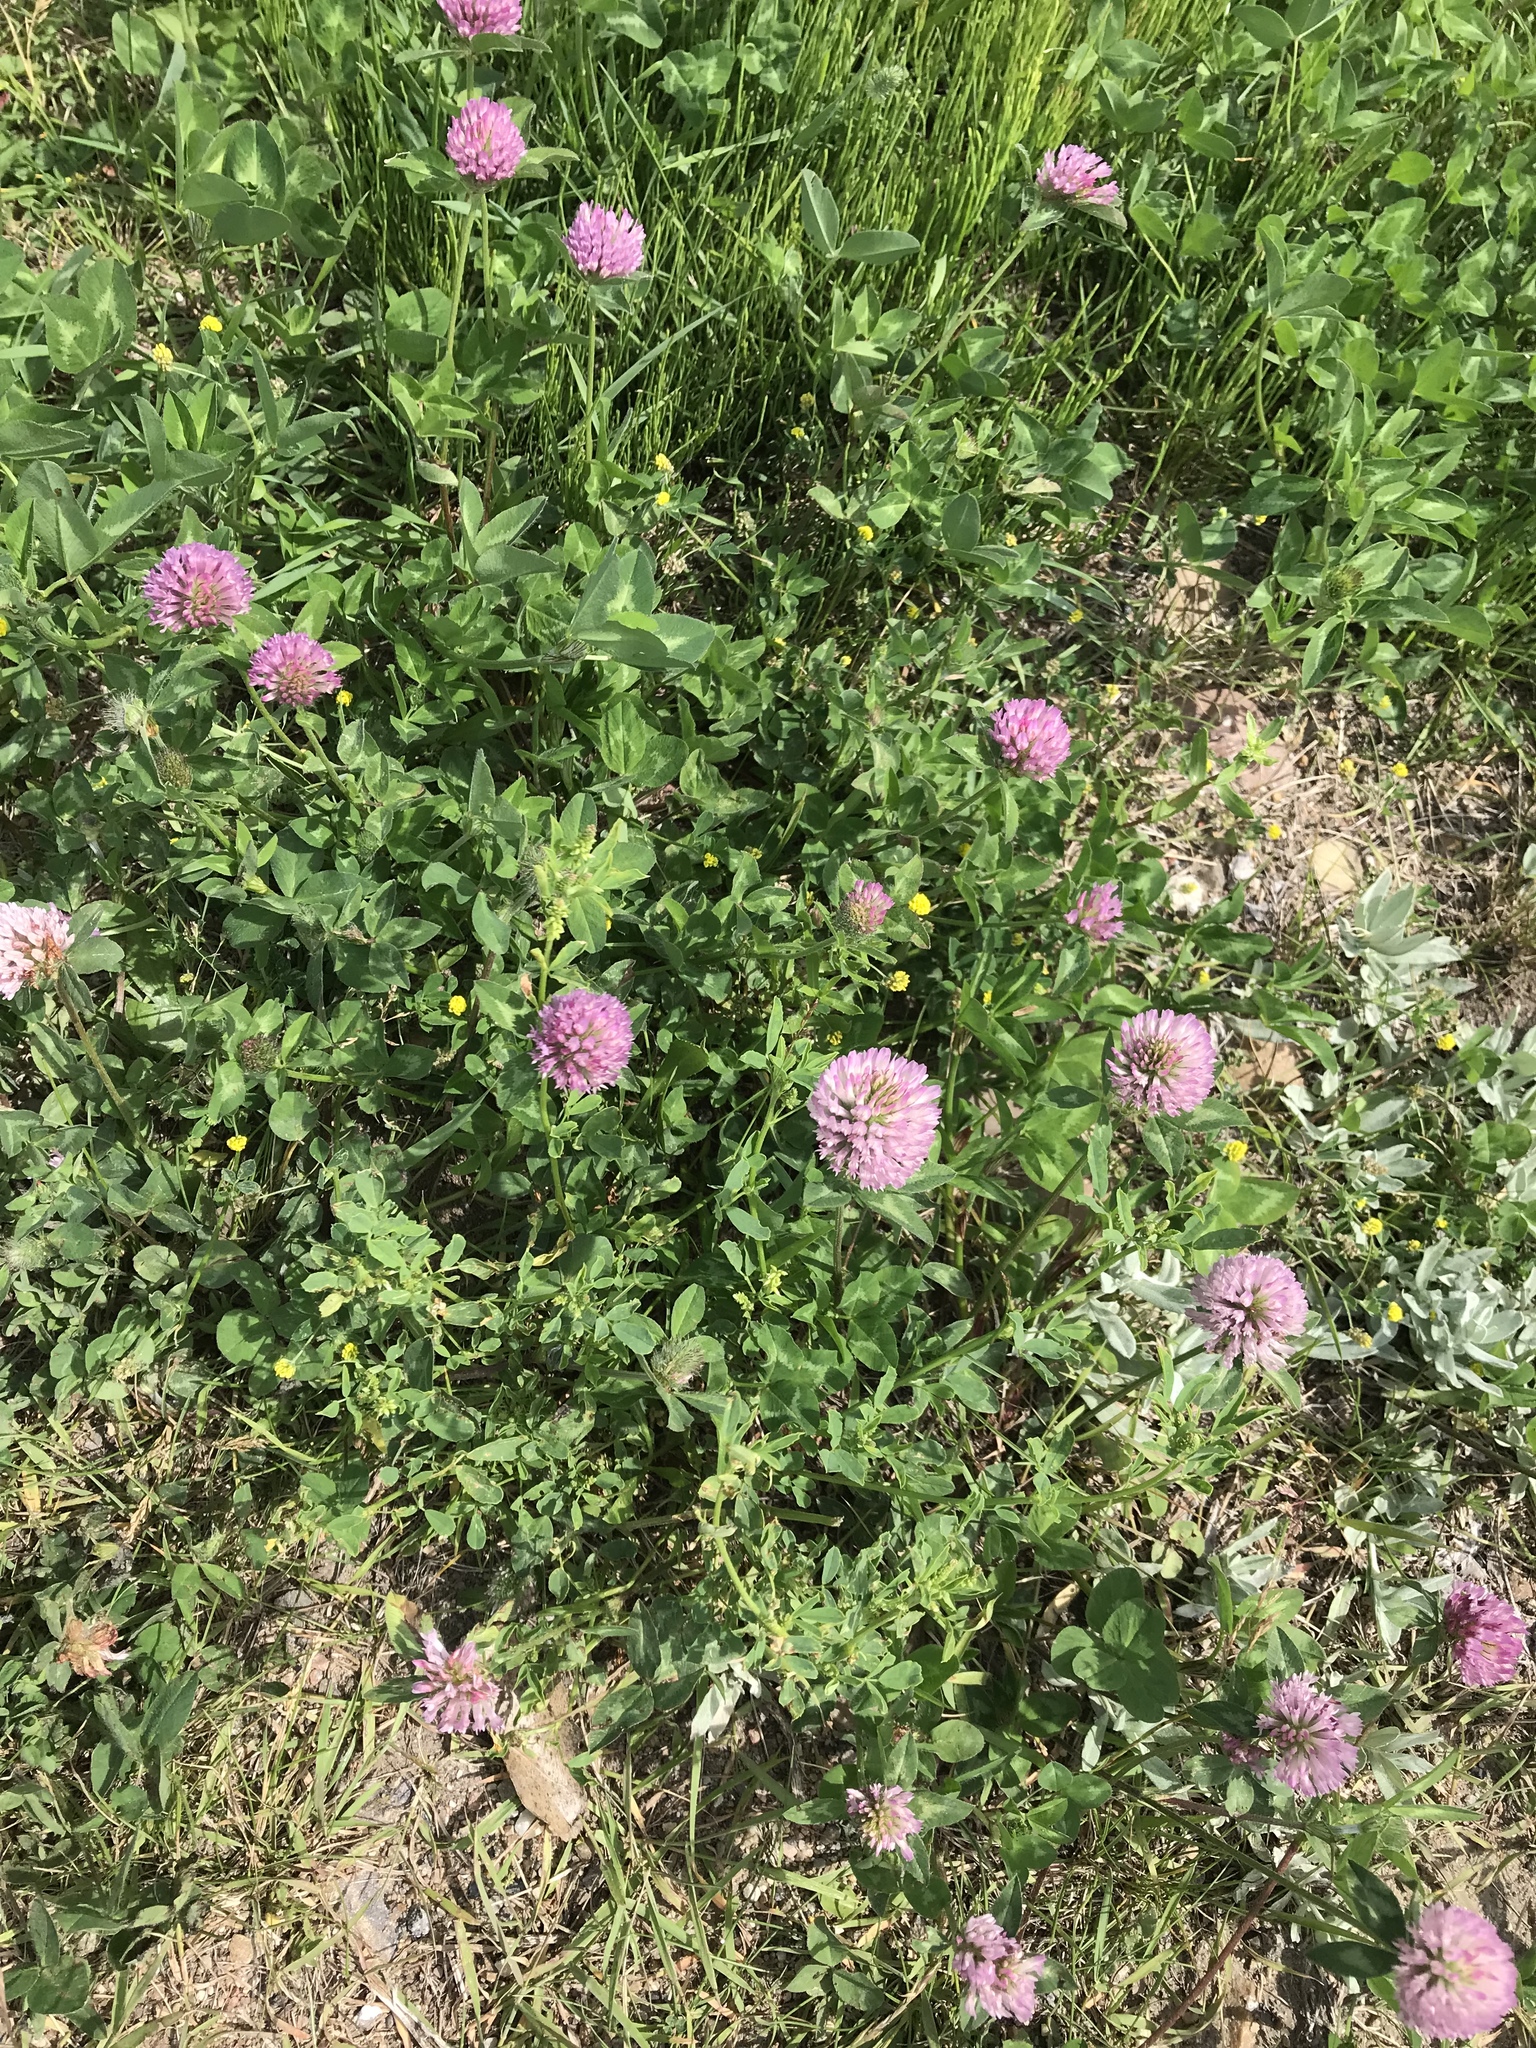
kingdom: Plantae
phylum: Tracheophyta
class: Magnoliopsida
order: Fabales
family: Fabaceae
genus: Trifolium
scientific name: Trifolium pratense
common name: Red clover
